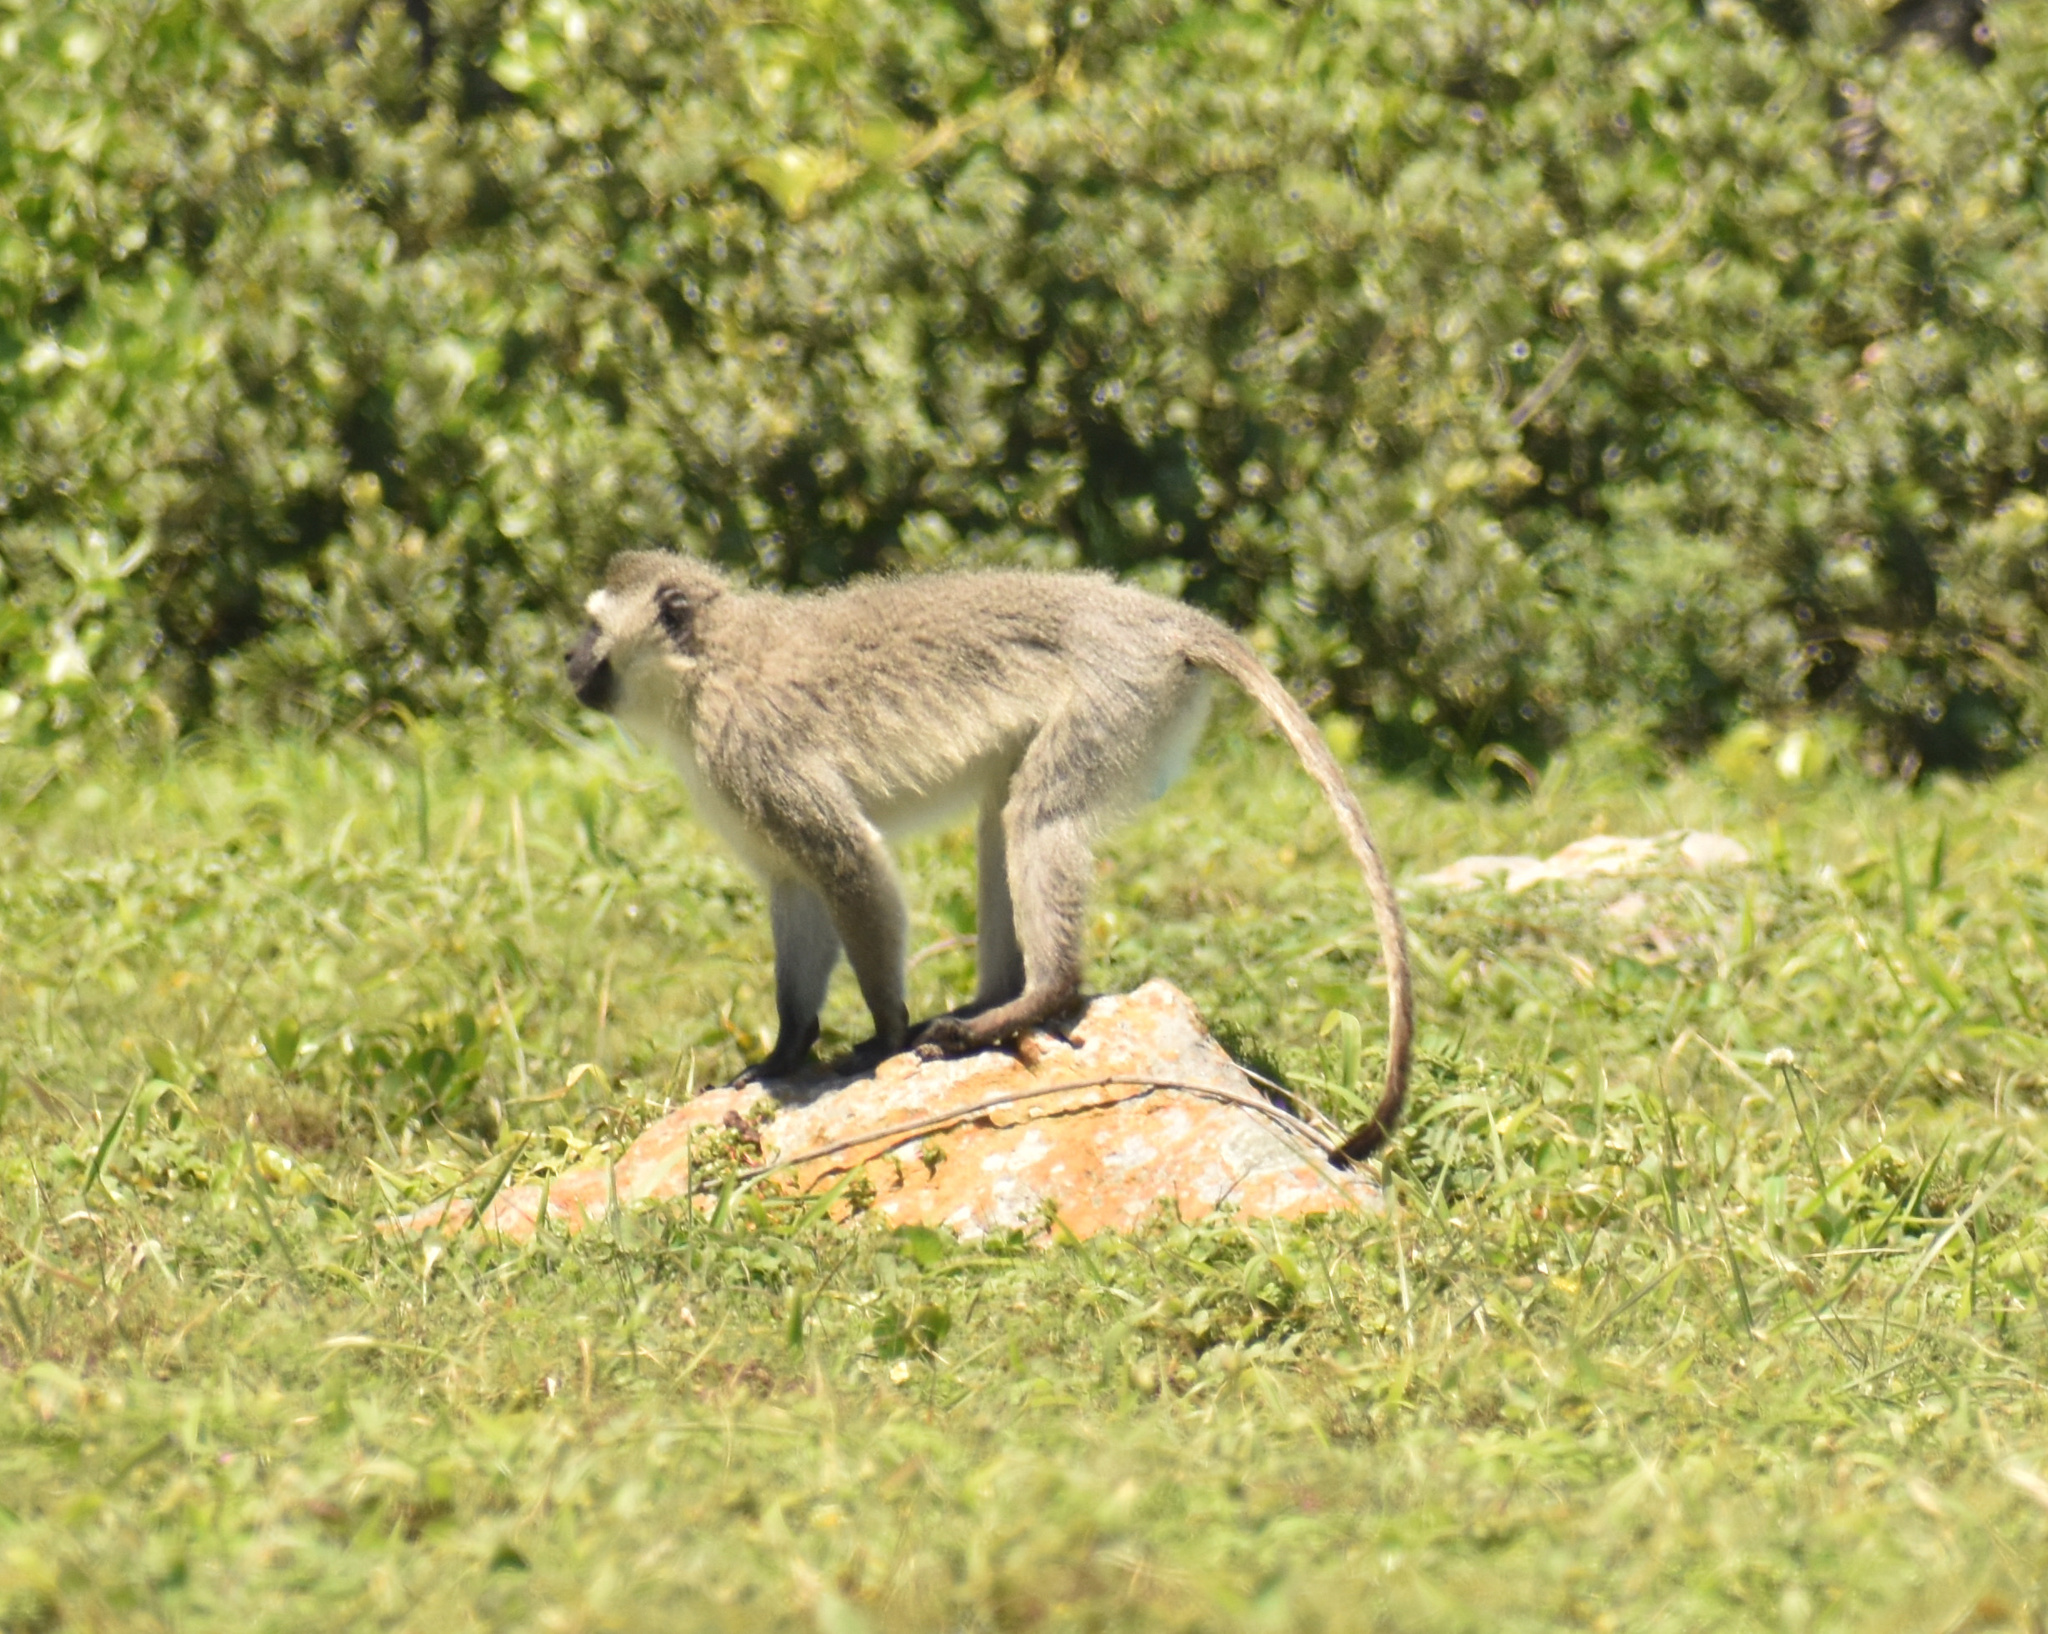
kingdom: Animalia
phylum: Chordata
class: Mammalia
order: Primates
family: Cercopithecidae
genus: Chlorocebus
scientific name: Chlorocebus pygerythrus
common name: Vervet monkey
